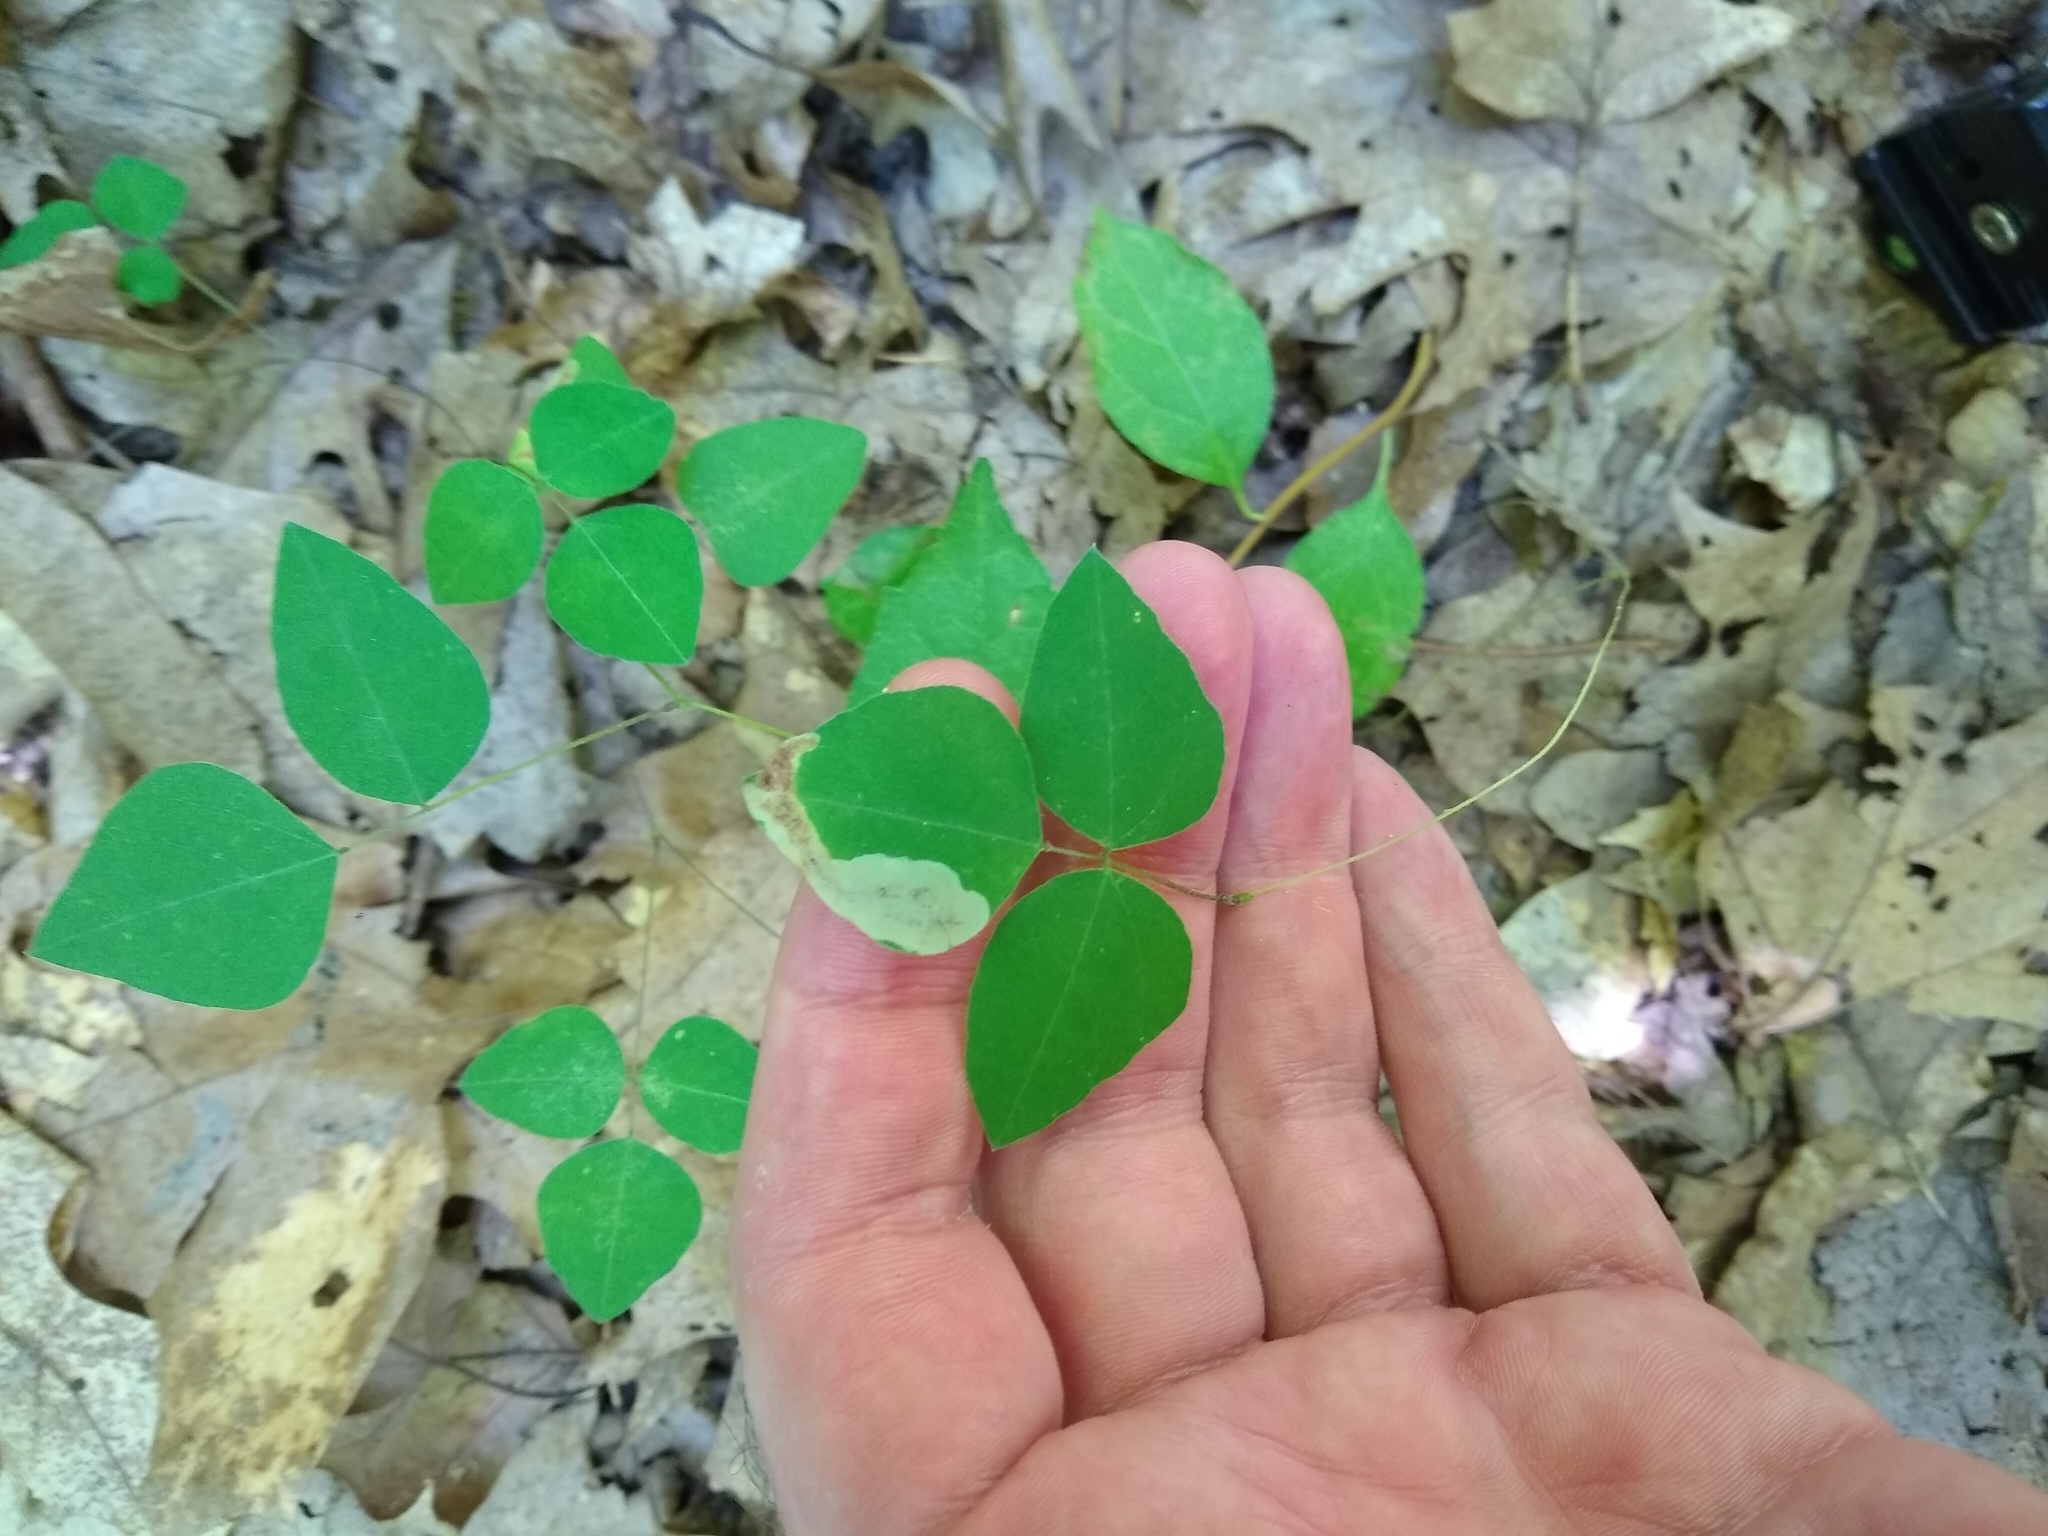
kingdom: Animalia
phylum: Arthropoda
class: Insecta
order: Lepidoptera
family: Gracillariidae
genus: Leucanthiza
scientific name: Leucanthiza amphicarpeaefoliella
